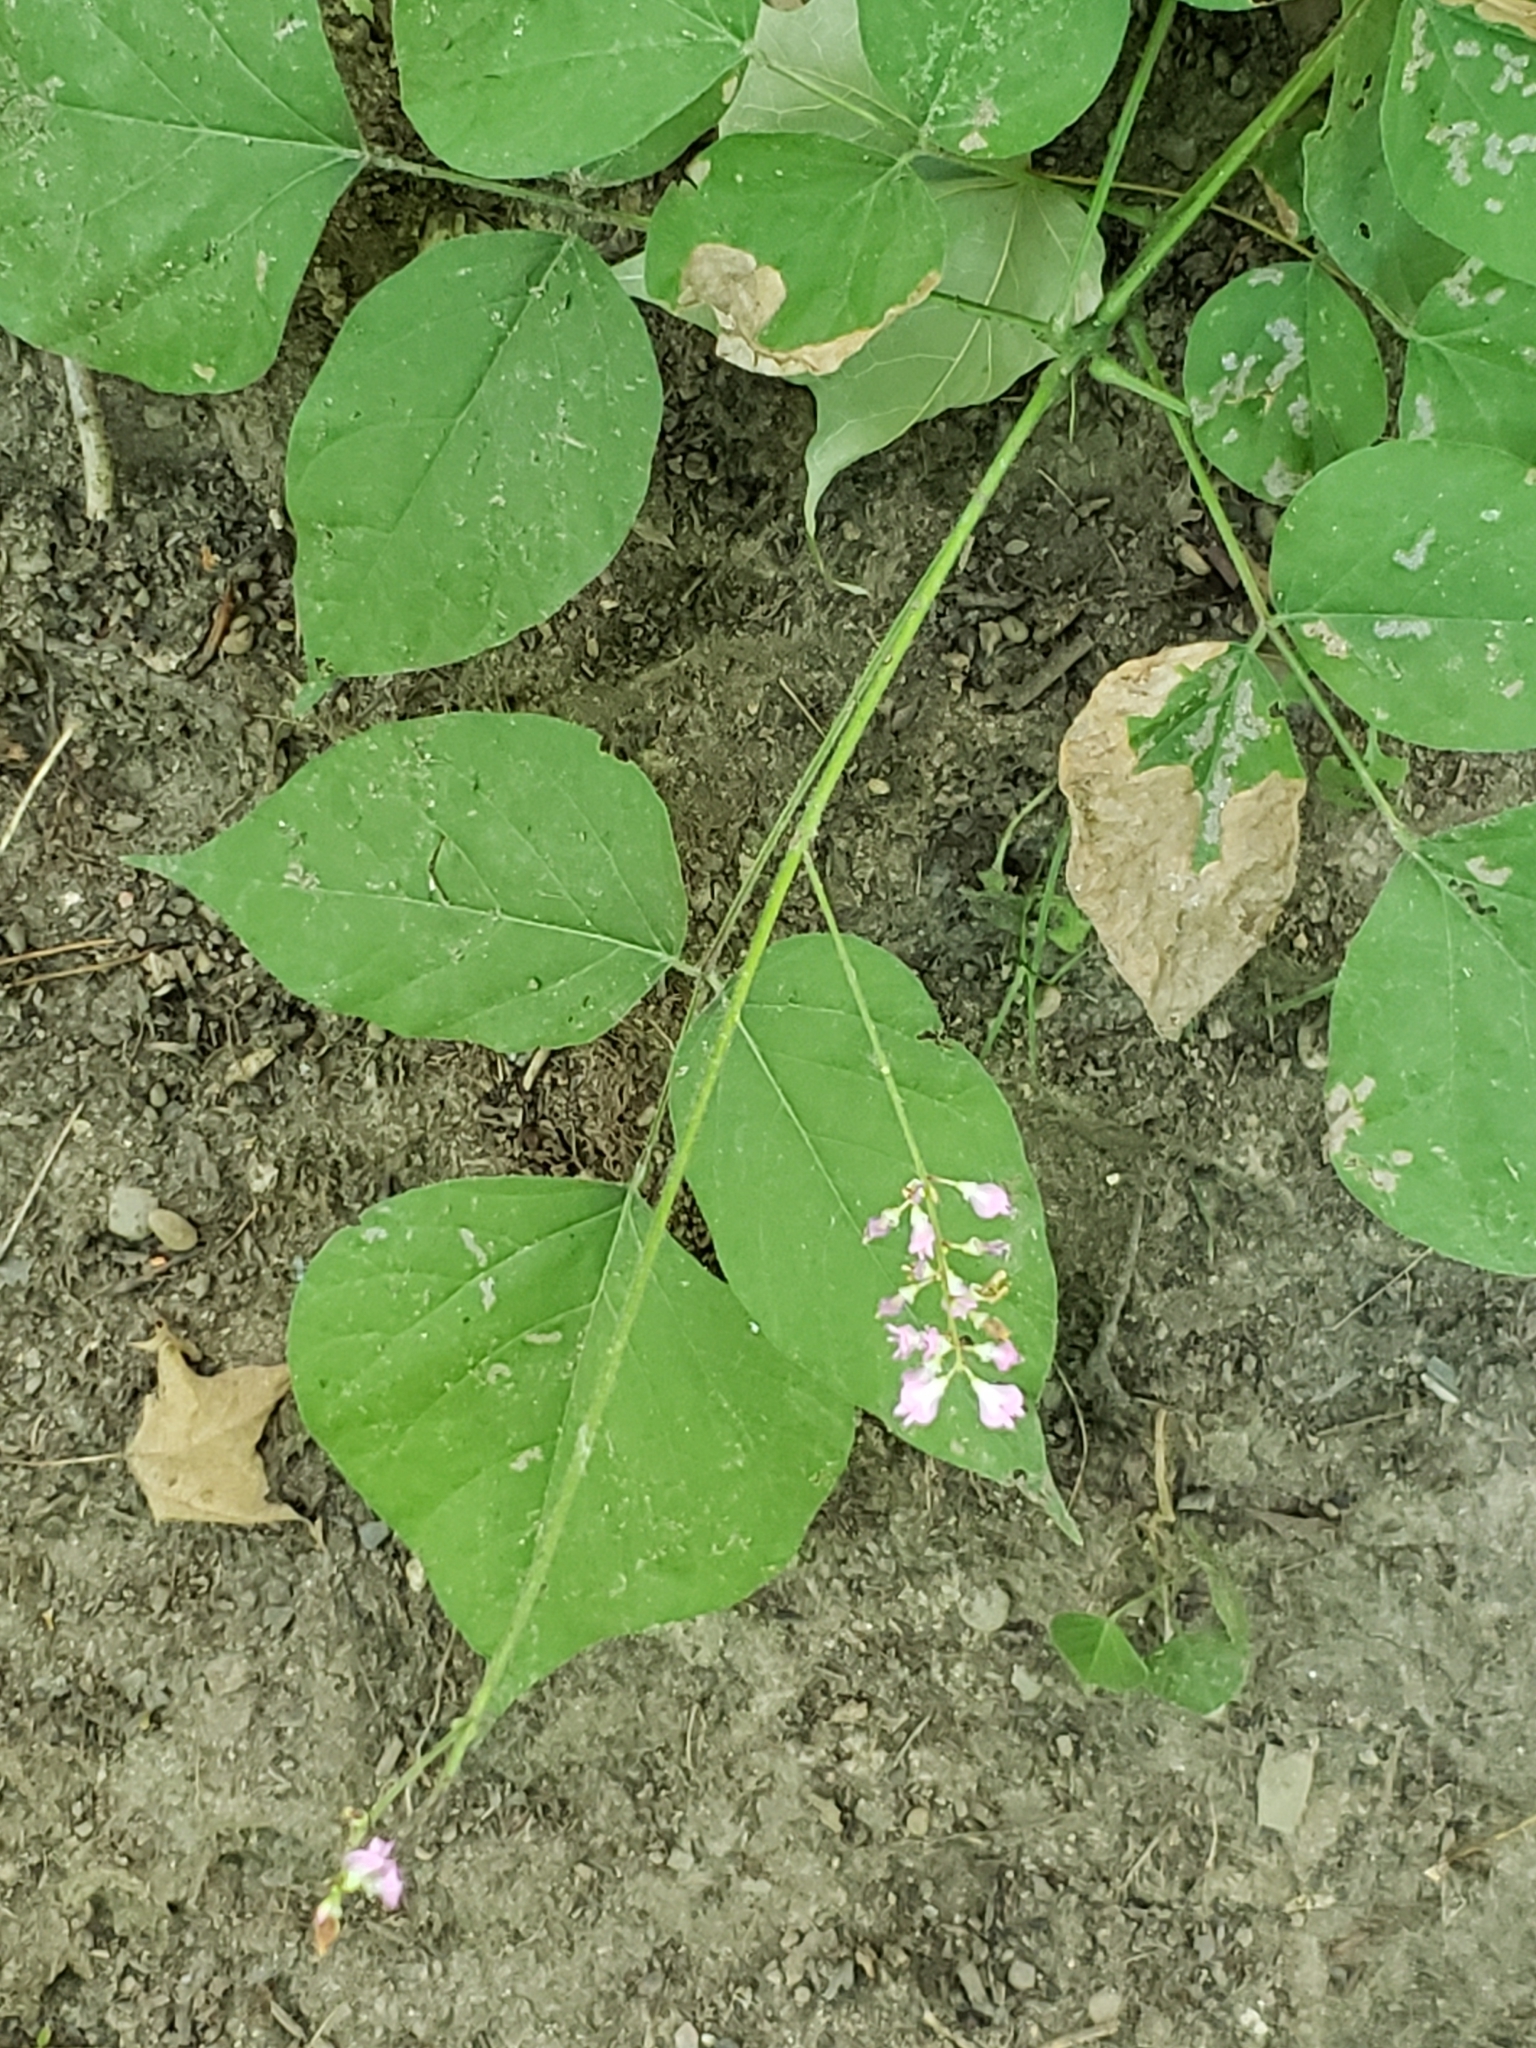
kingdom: Plantae
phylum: Tracheophyta
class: Magnoliopsida
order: Fabales
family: Fabaceae
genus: Hylodesmum
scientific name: Hylodesmum glutinosum
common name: Clustered-leaved tick-trefoil
